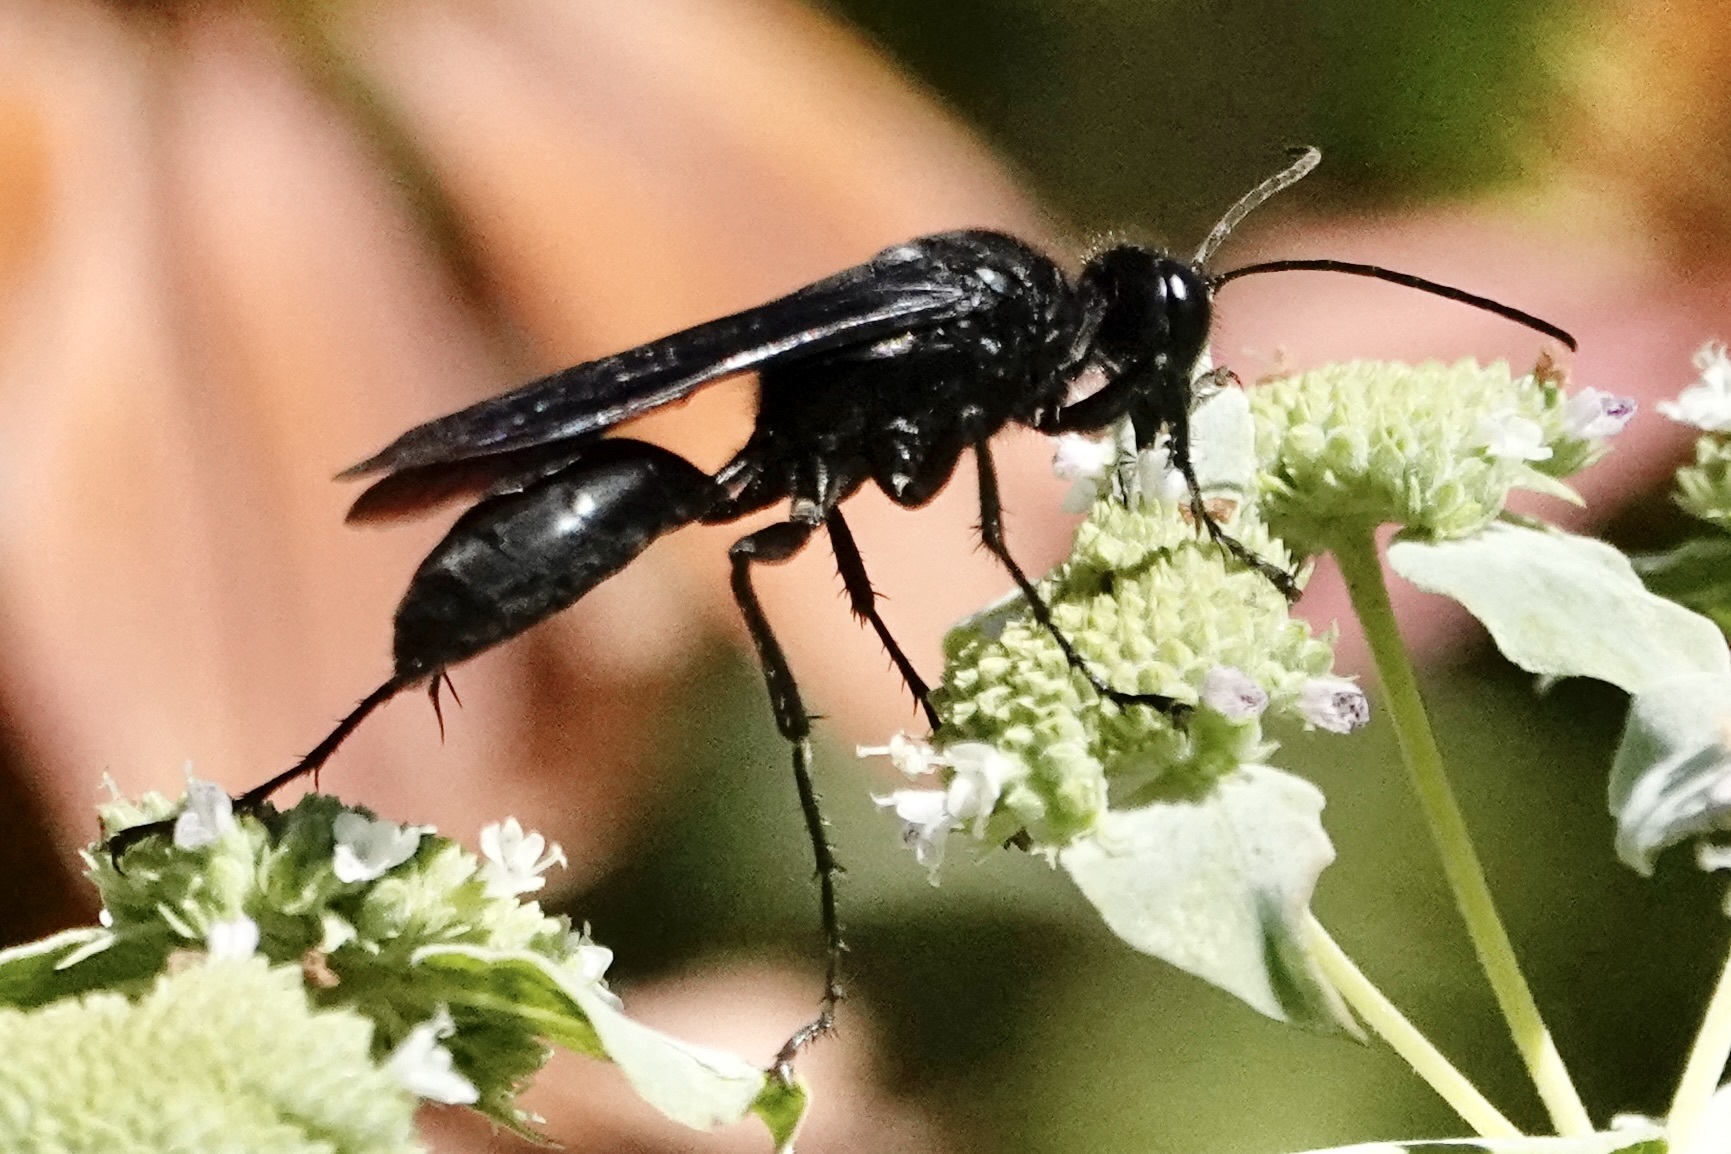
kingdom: Animalia
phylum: Arthropoda
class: Insecta
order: Hymenoptera
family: Sphecidae
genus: Sphex
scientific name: Sphex pensylvanicus
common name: Great black digger wasp
